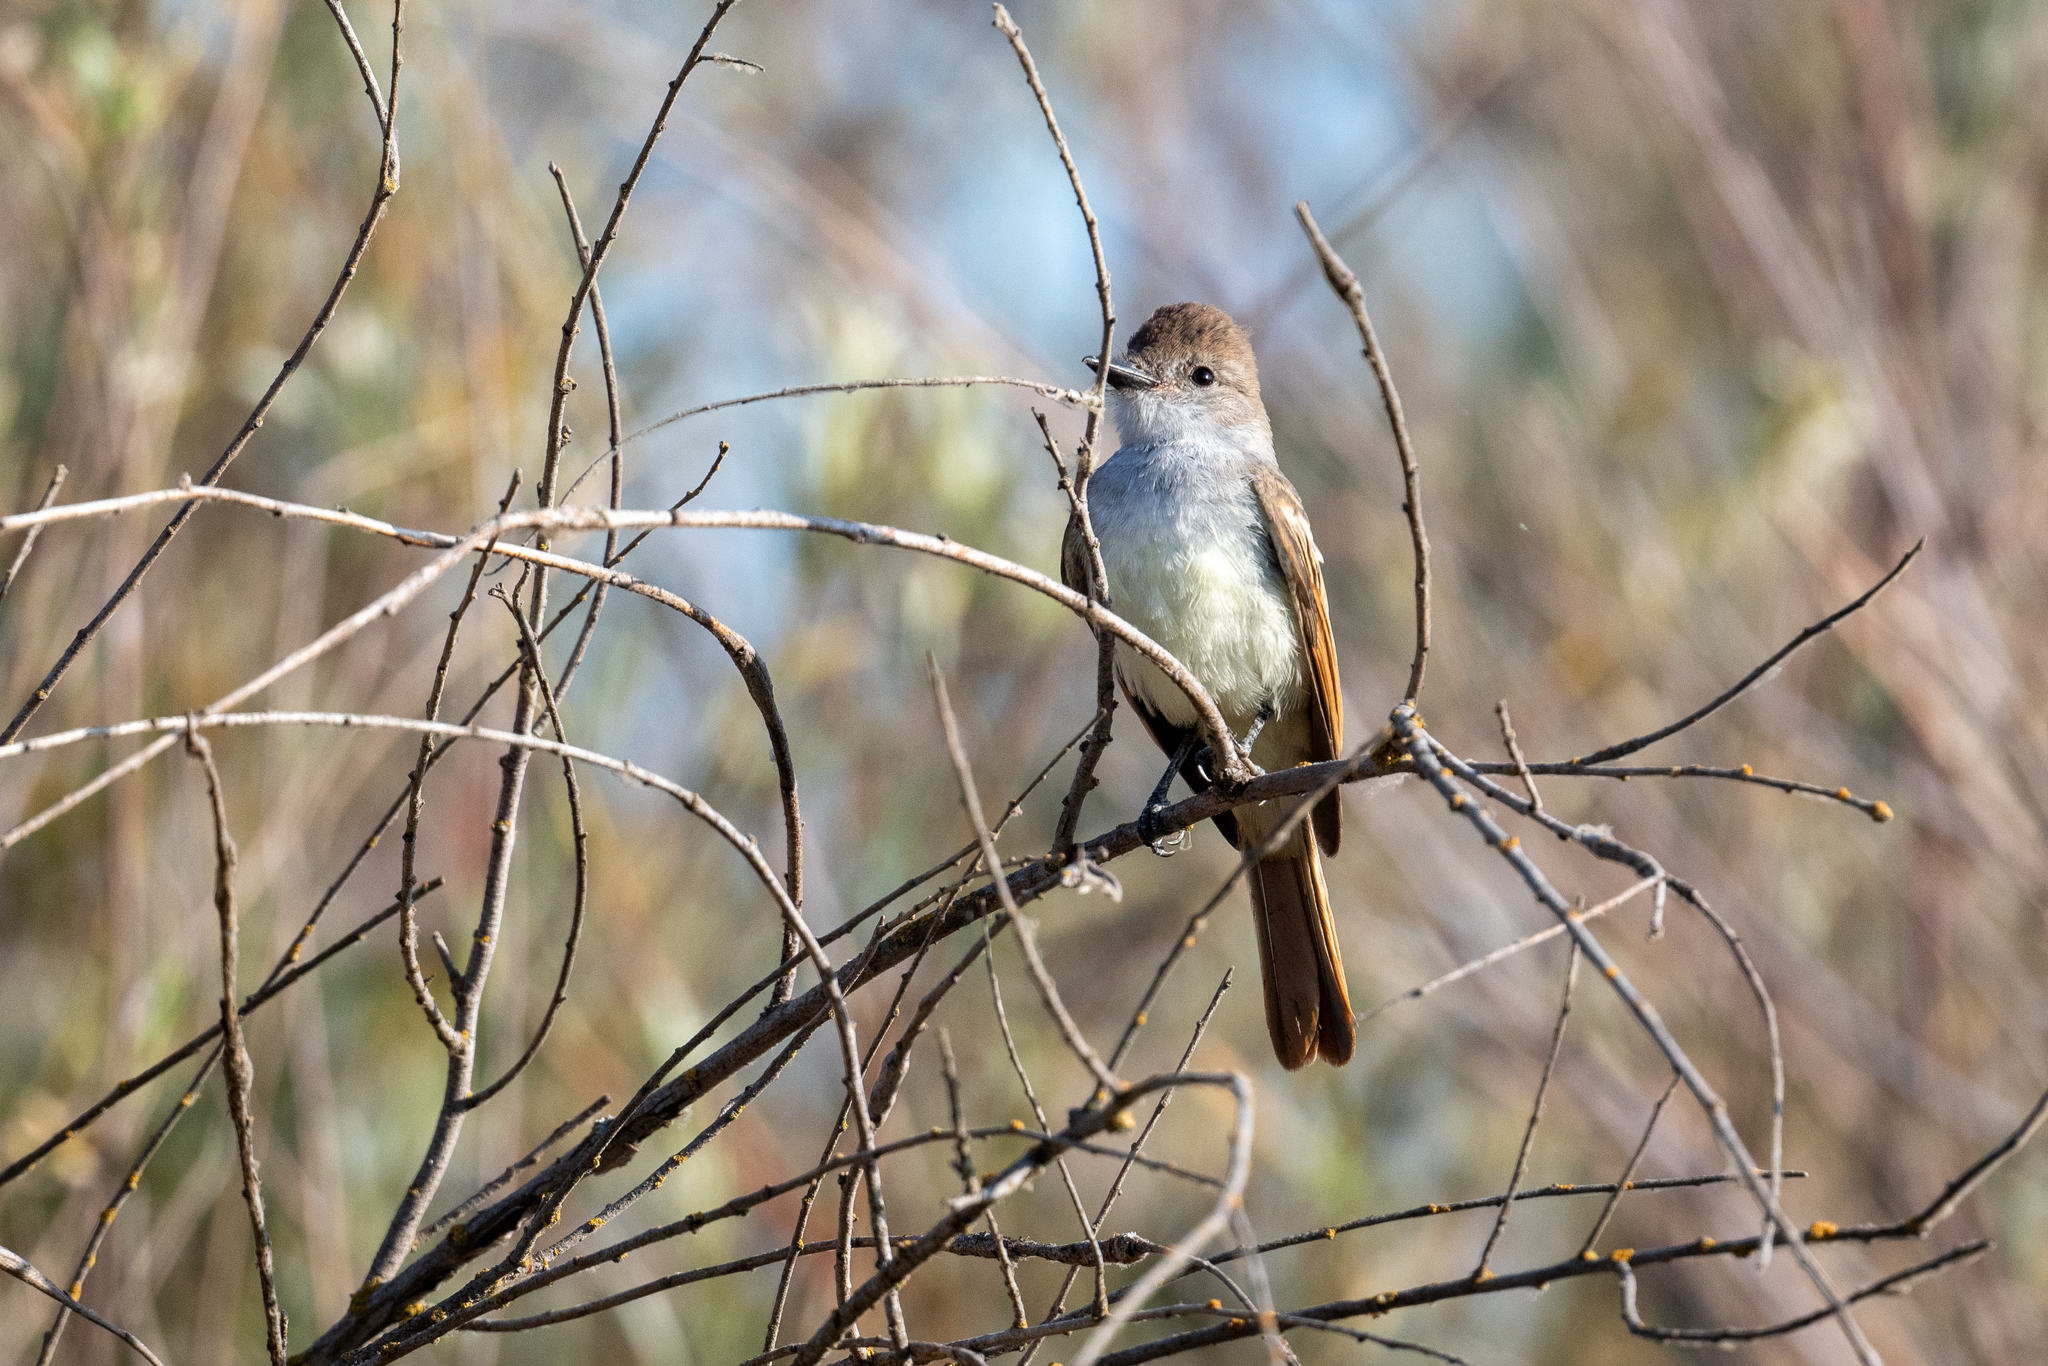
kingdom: Animalia
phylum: Chordata
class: Aves
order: Passeriformes
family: Tyrannidae
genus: Myiarchus
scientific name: Myiarchus cinerascens
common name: Ash-throated flycatcher
